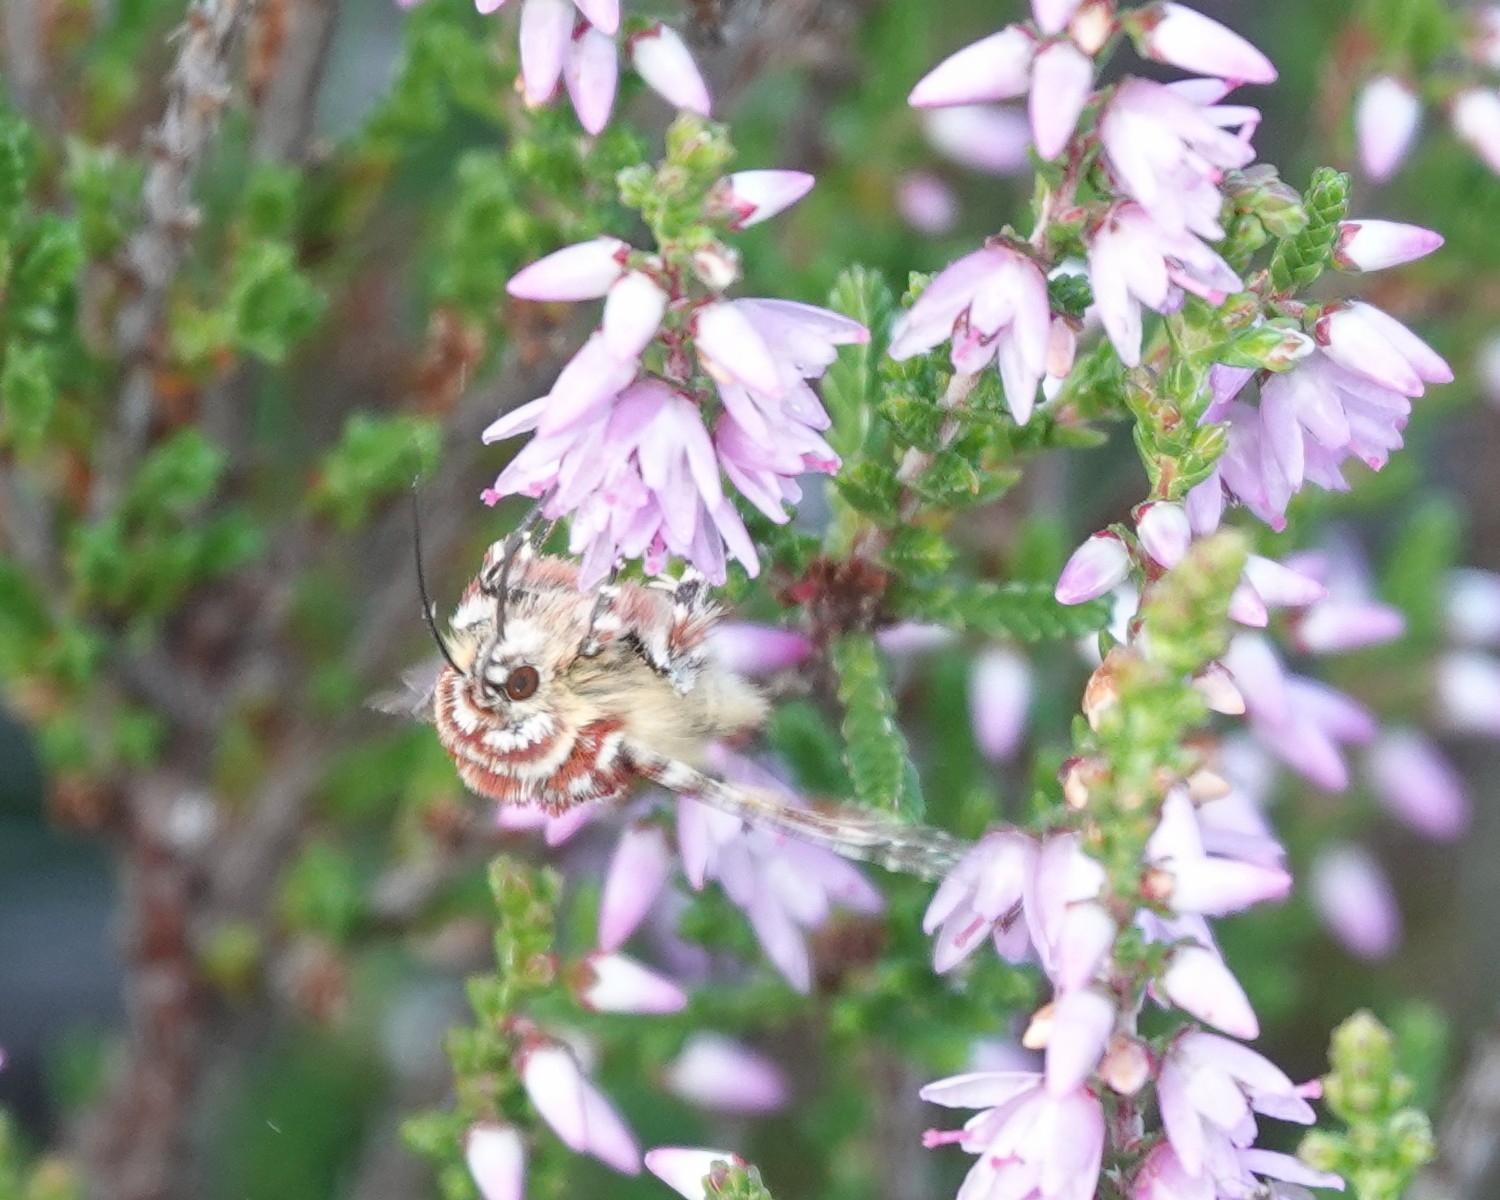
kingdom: Animalia
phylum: Arthropoda
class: Insecta
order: Lepidoptera
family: Noctuidae
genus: Anarta
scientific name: Anarta myrtilli
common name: Beautiful yellow underwing
